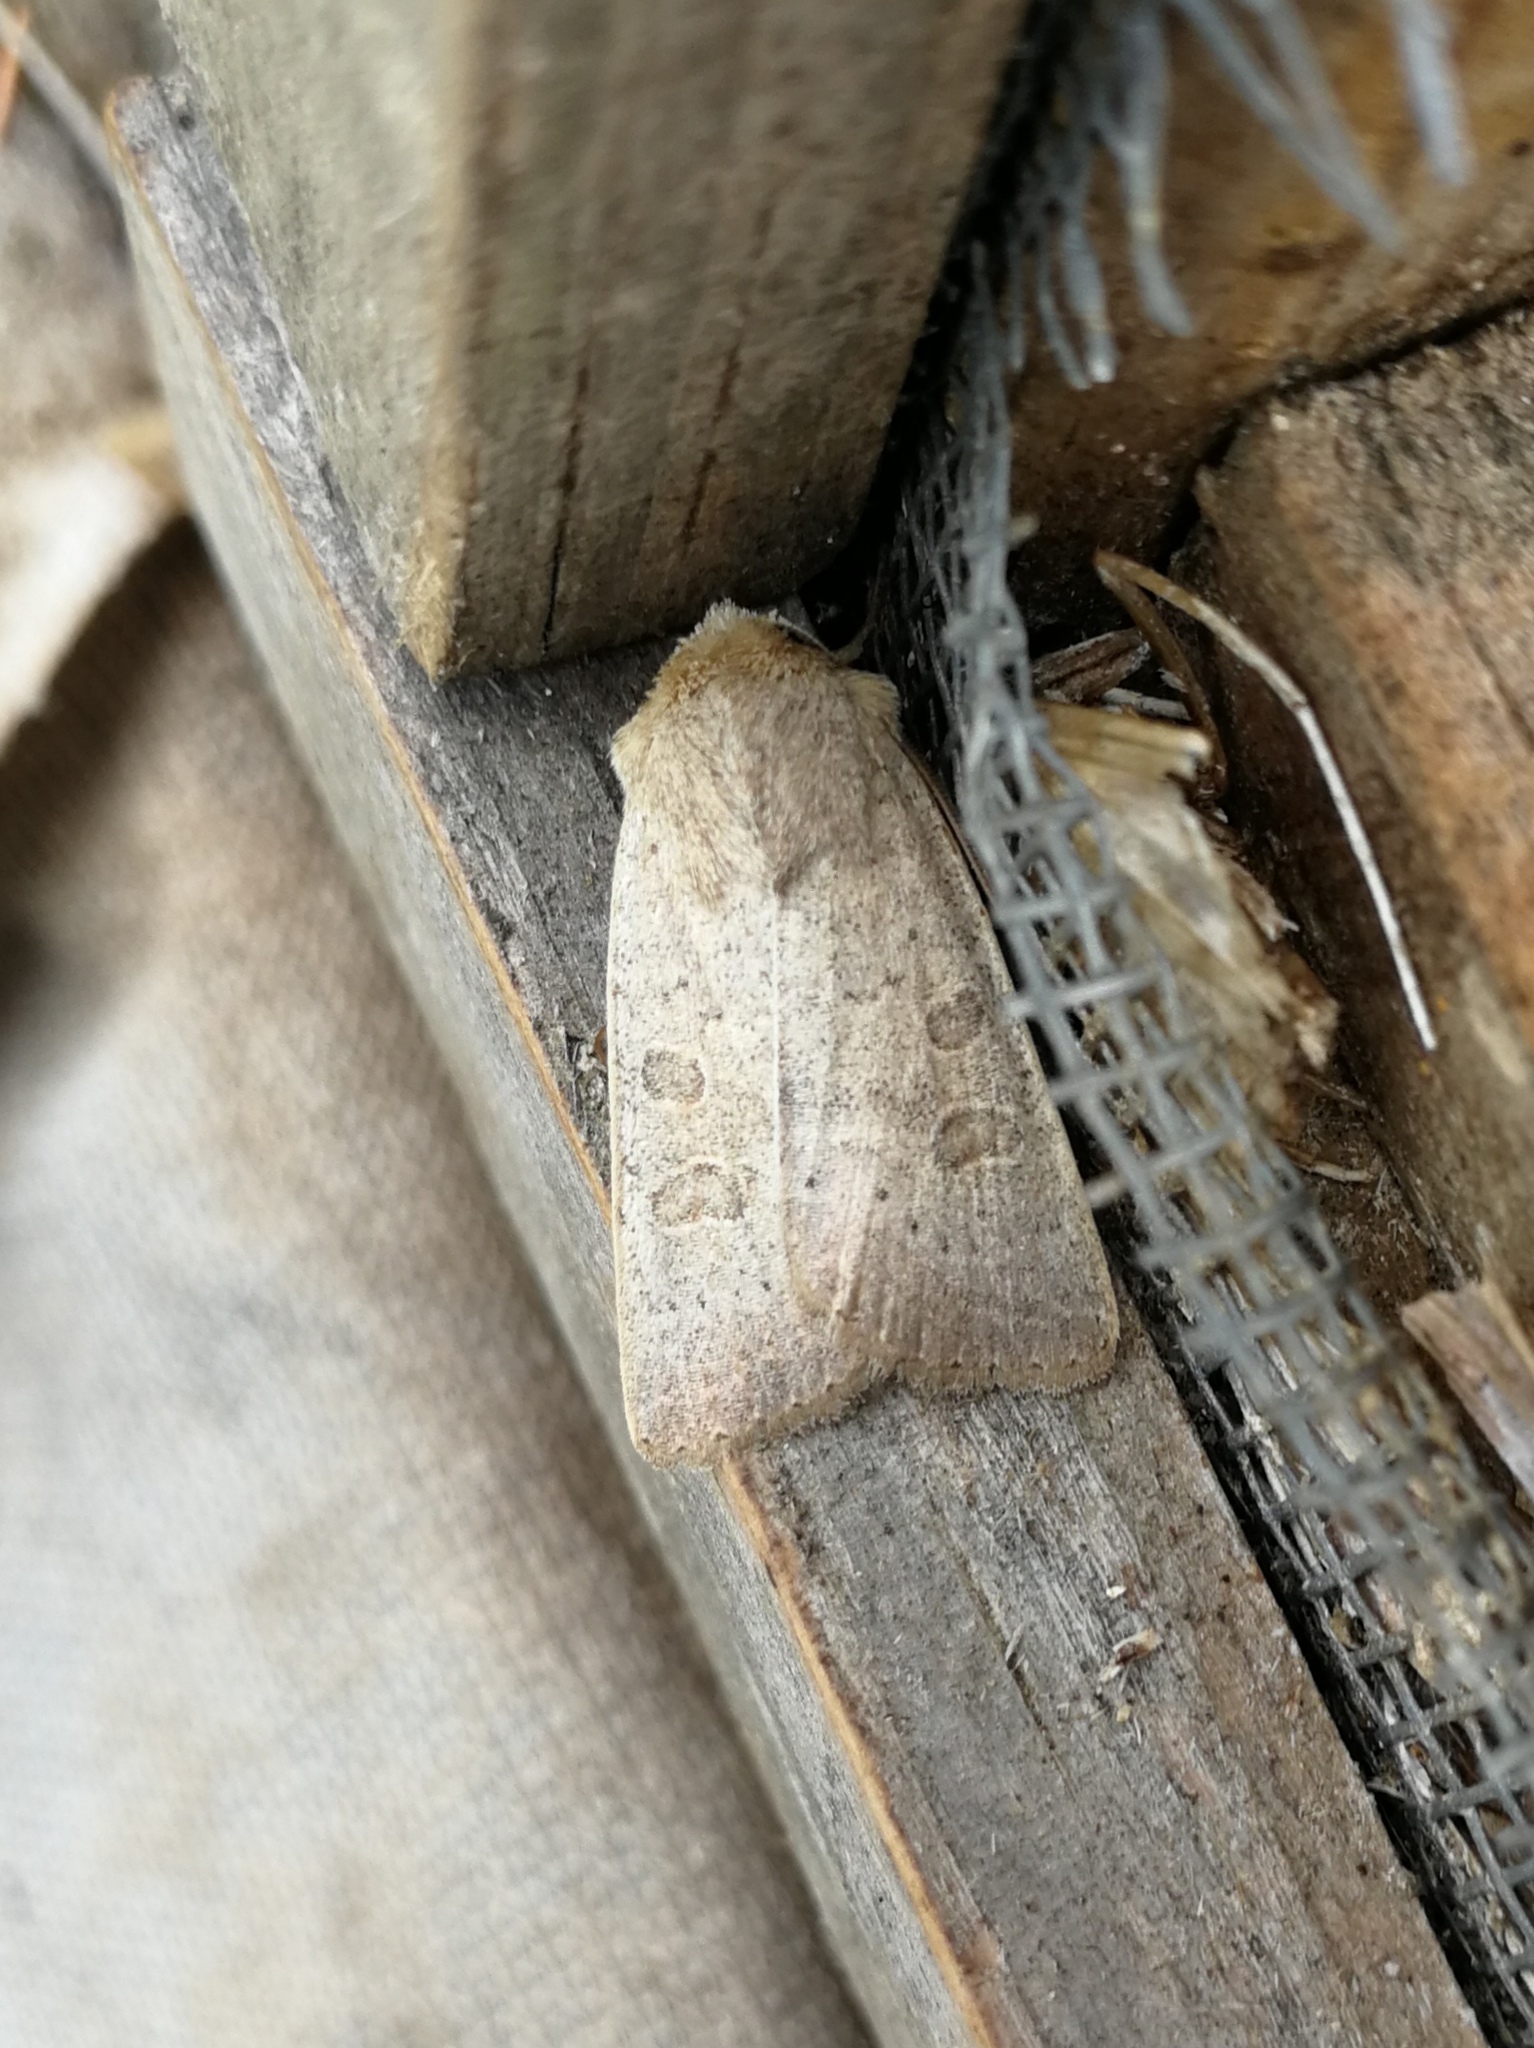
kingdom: Animalia
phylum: Arthropoda
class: Insecta
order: Lepidoptera
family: Noctuidae
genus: Hoplodrina
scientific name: Hoplodrina ambigua
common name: Vine's rustic
